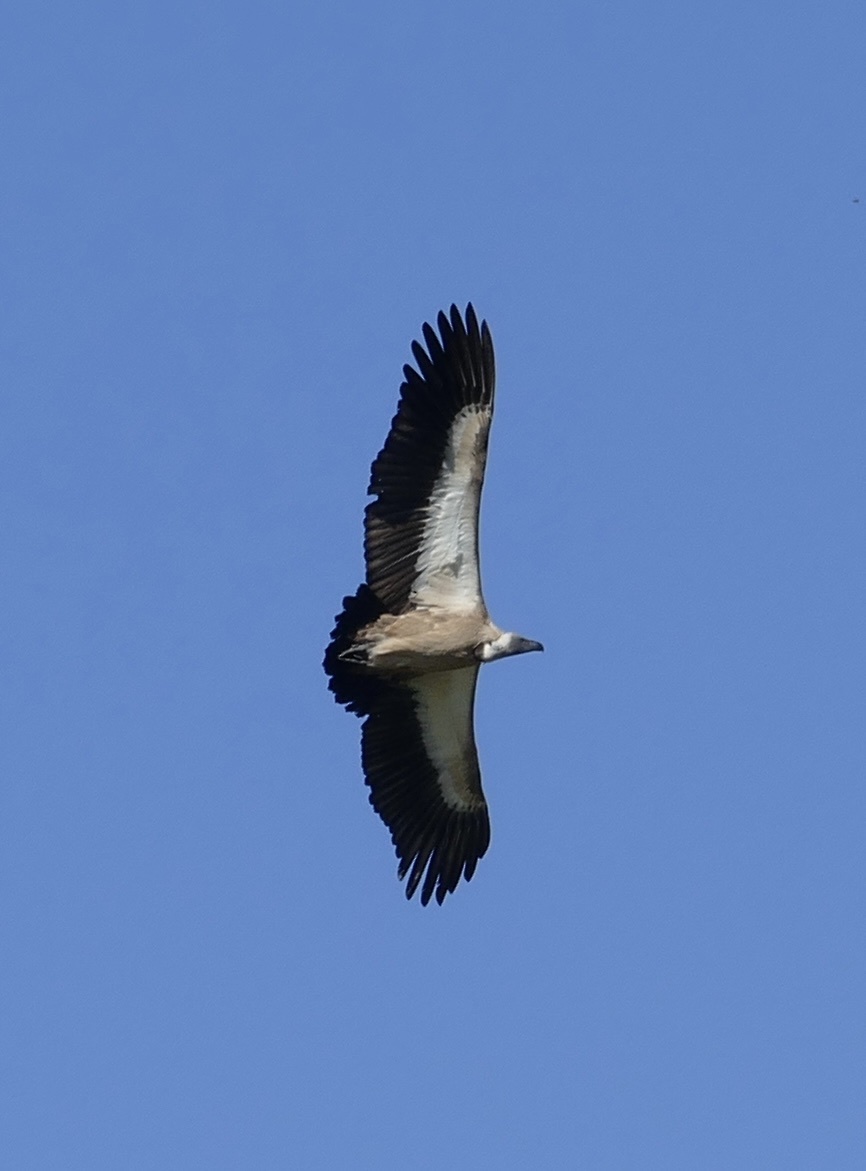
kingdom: Animalia
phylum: Chordata
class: Aves
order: Accipitriformes
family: Accipitridae
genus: Gyps
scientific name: Gyps africanus
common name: White-backed vulture
